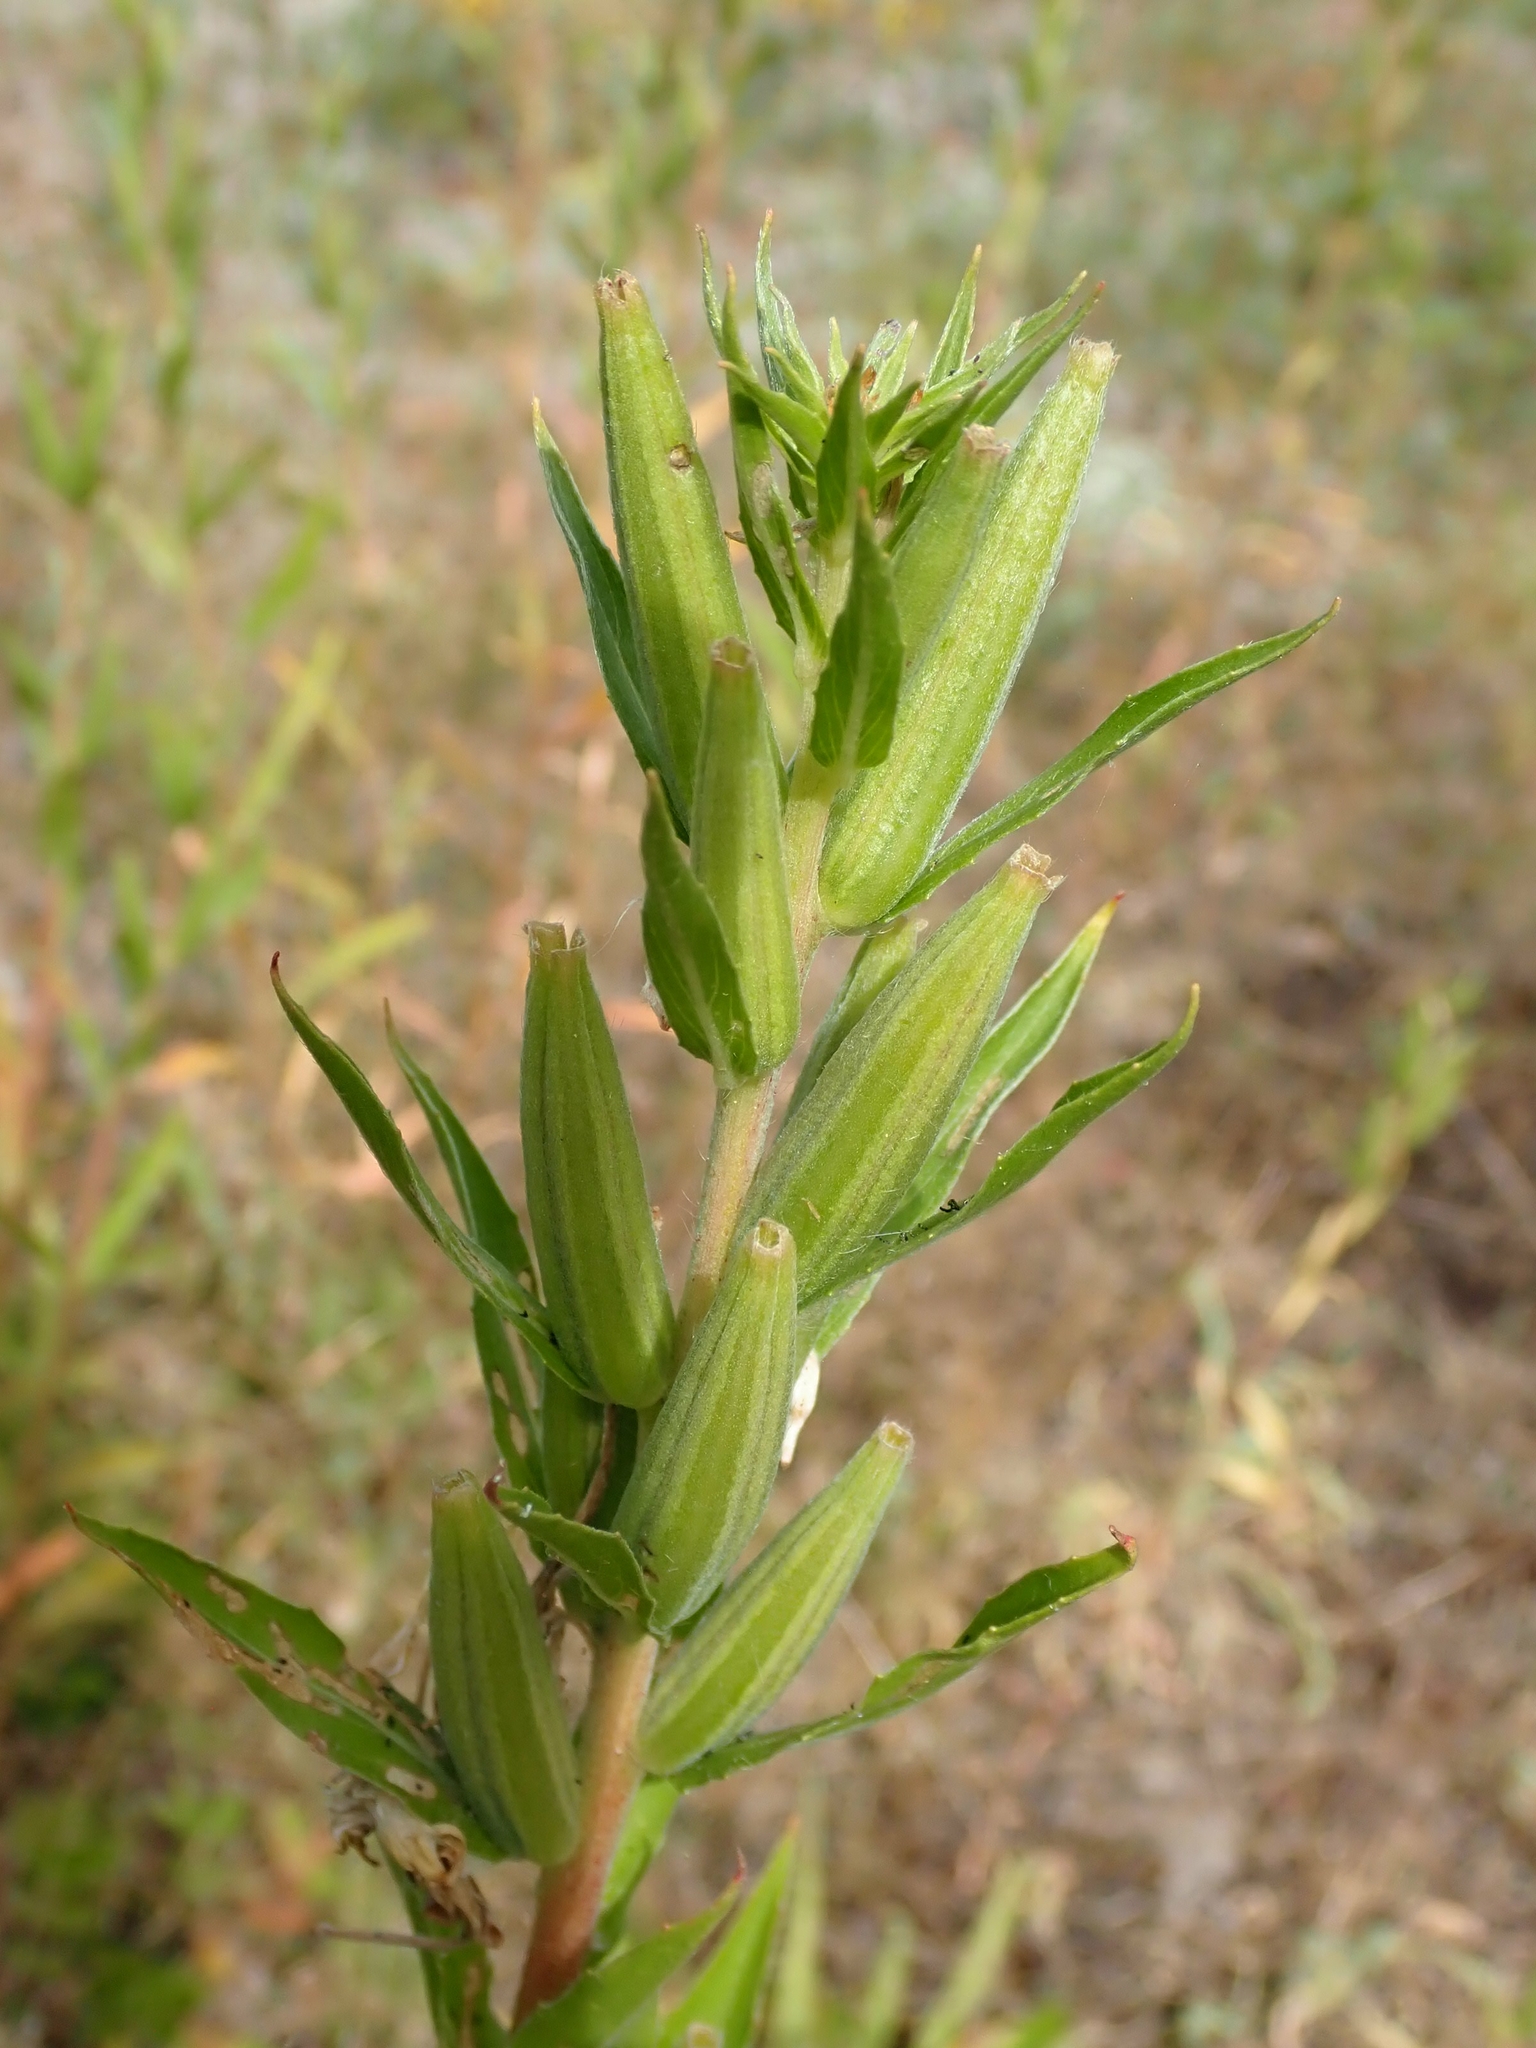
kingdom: Plantae
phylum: Tracheophyta
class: Magnoliopsida
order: Myrtales
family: Onagraceae
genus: Oenothera
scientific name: Oenothera biennis
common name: Common evening-primrose
